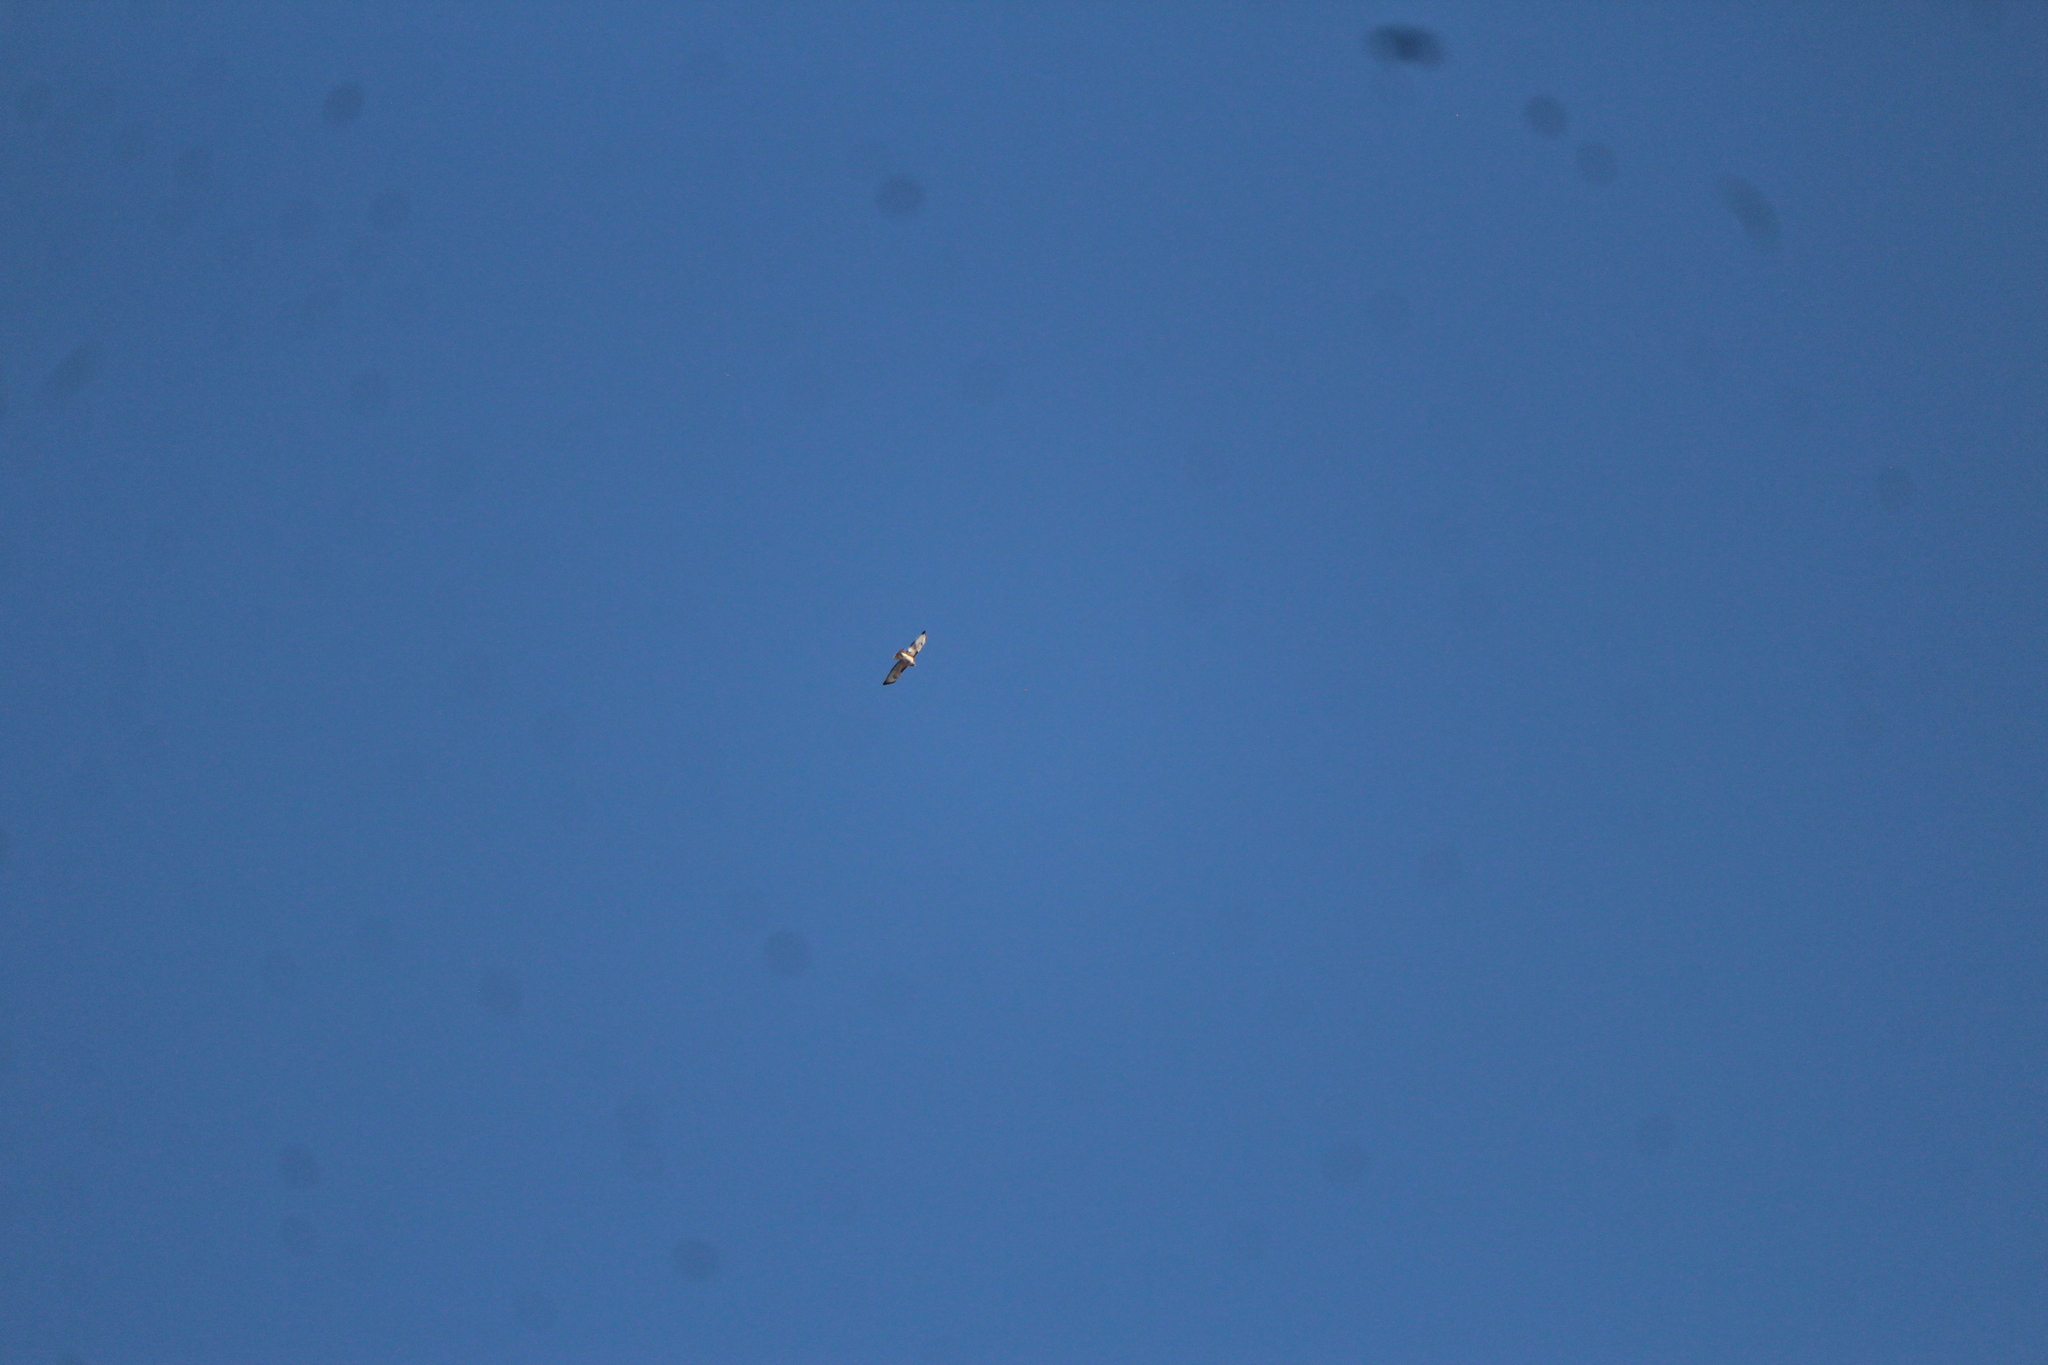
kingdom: Animalia
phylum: Chordata
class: Aves
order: Accipitriformes
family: Accipitridae
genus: Buteo
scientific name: Buteo jamaicensis
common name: Red-tailed hawk
